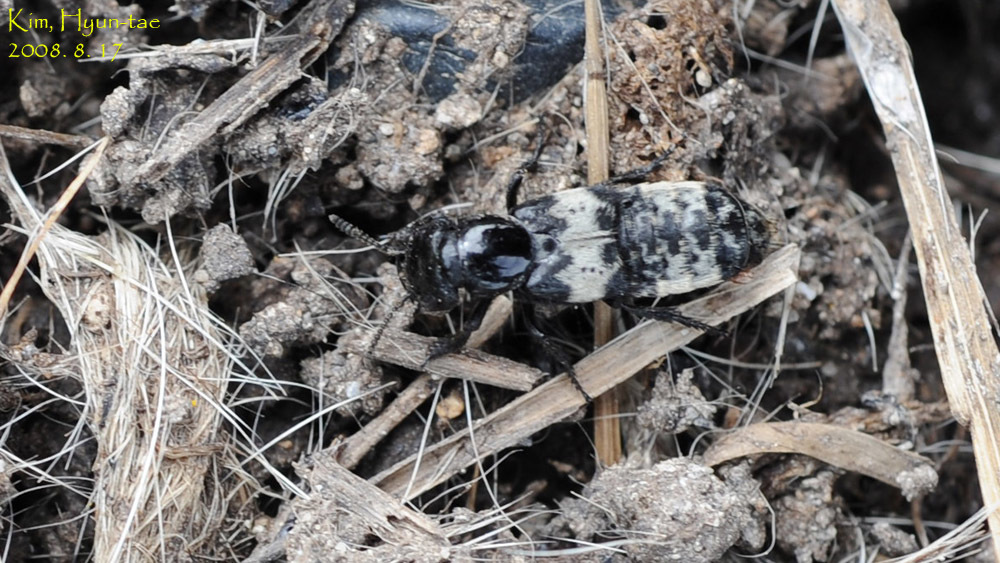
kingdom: Animalia
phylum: Arthropoda
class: Insecta
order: Coleoptera
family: Staphylinidae
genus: Creophilus
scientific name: Creophilus maxillosus
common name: Hairy rove beetle
